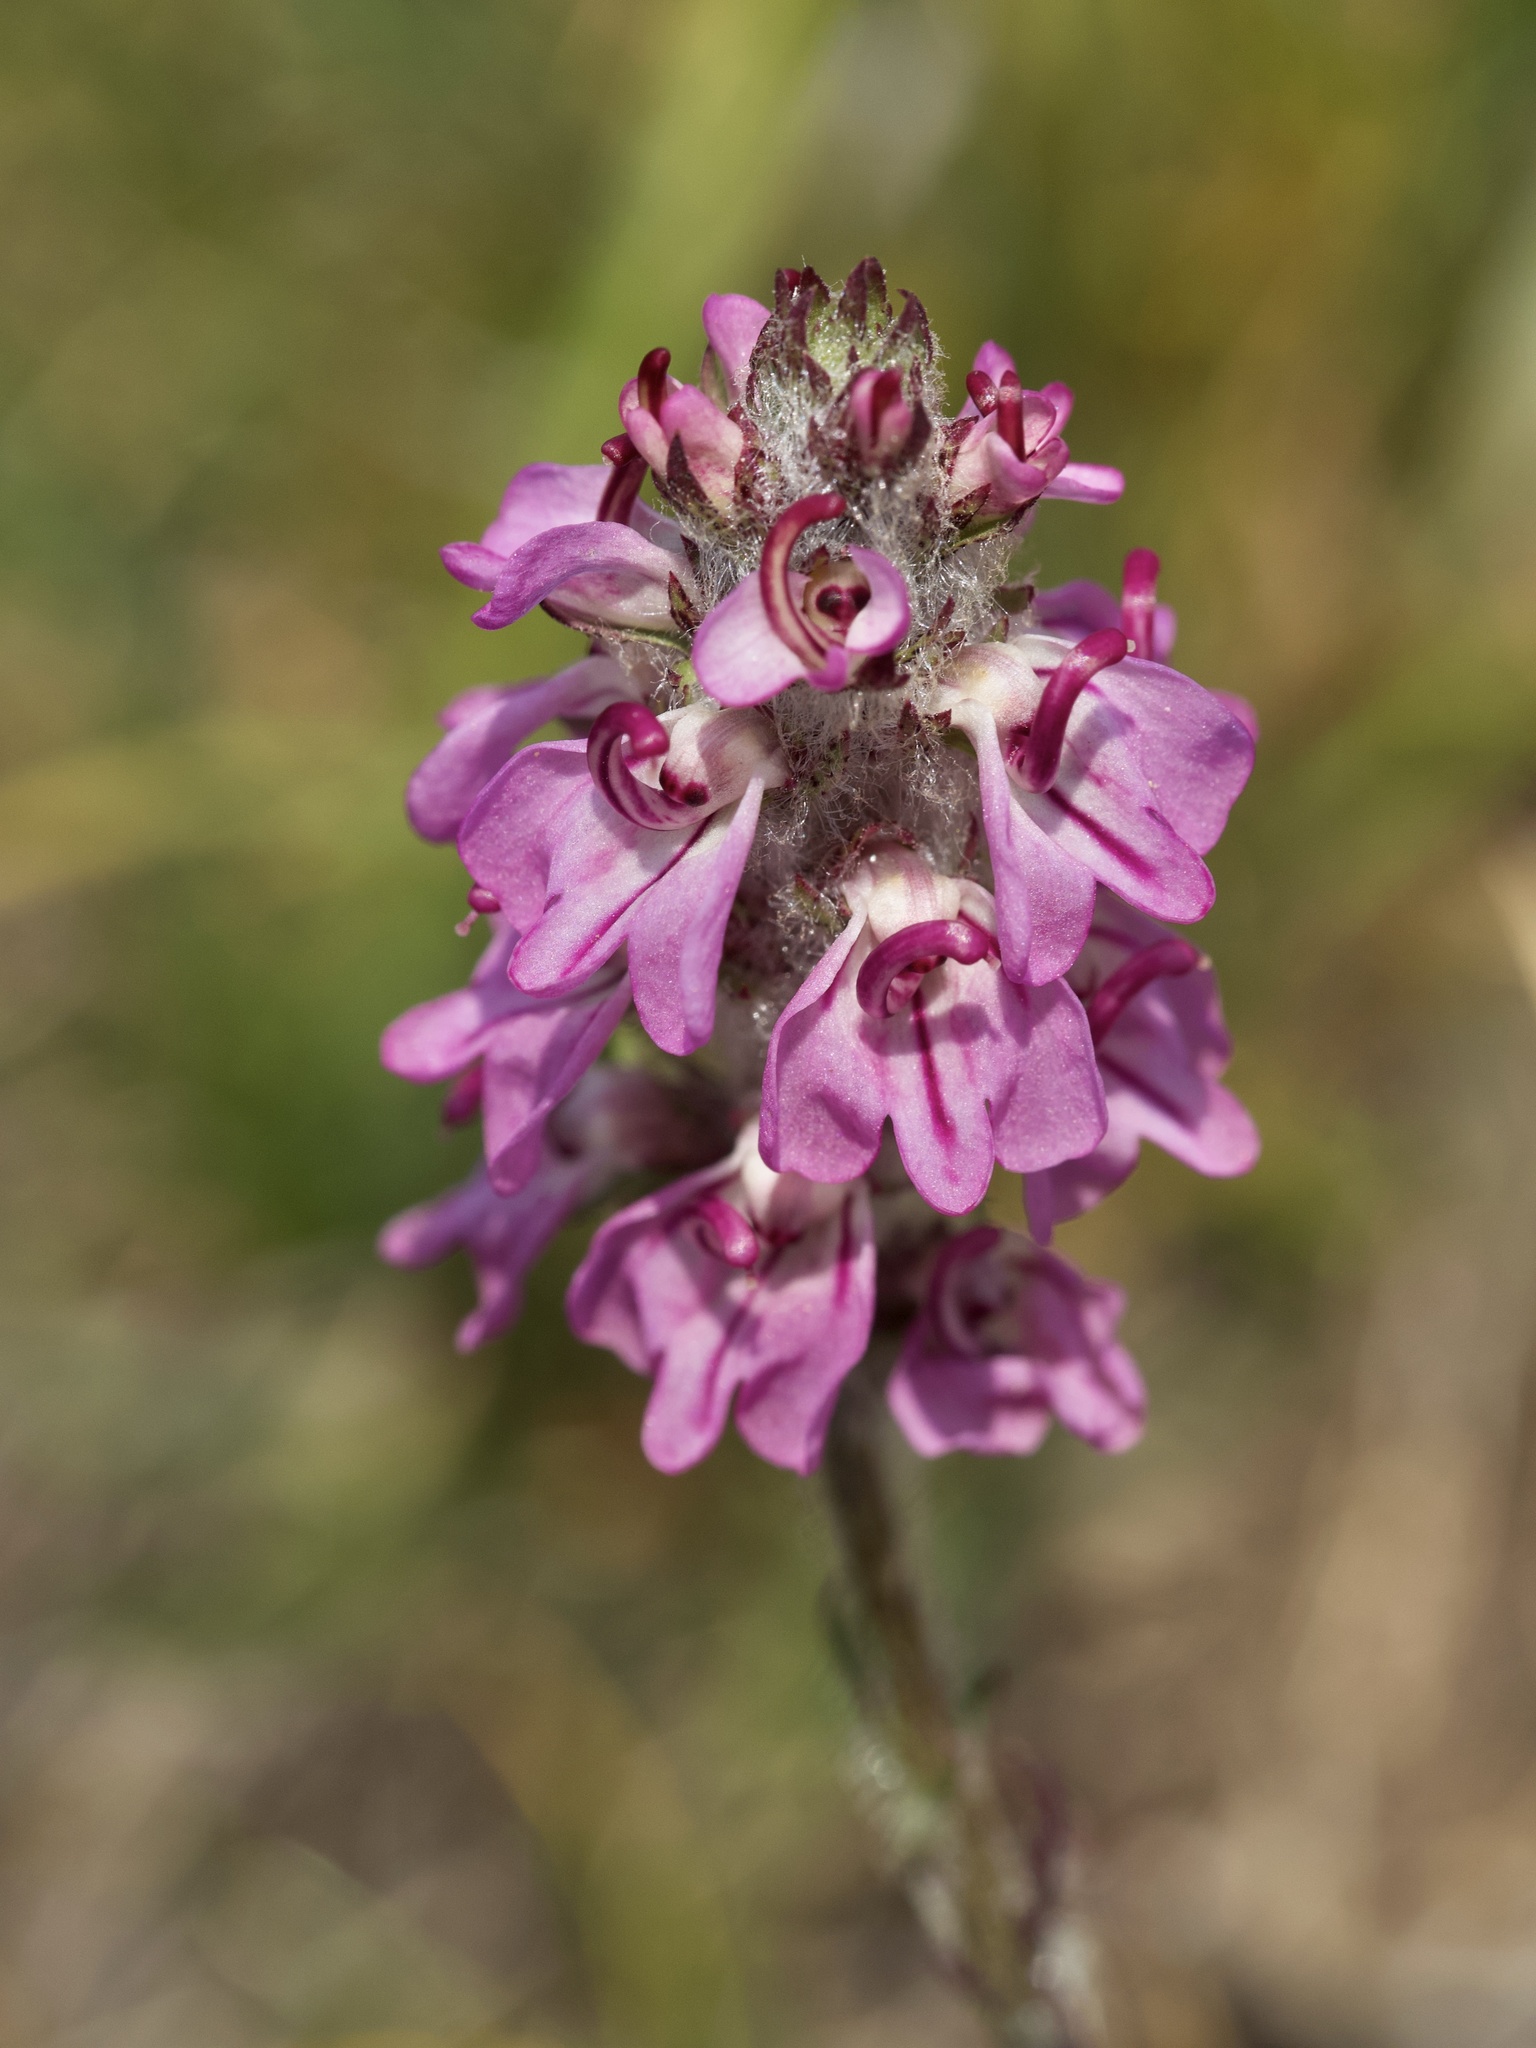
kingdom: Plantae
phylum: Tracheophyta
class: Magnoliopsida
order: Lamiales
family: Orobanchaceae
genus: Pedicularis
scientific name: Pedicularis attollens
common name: Slender pedicularis
